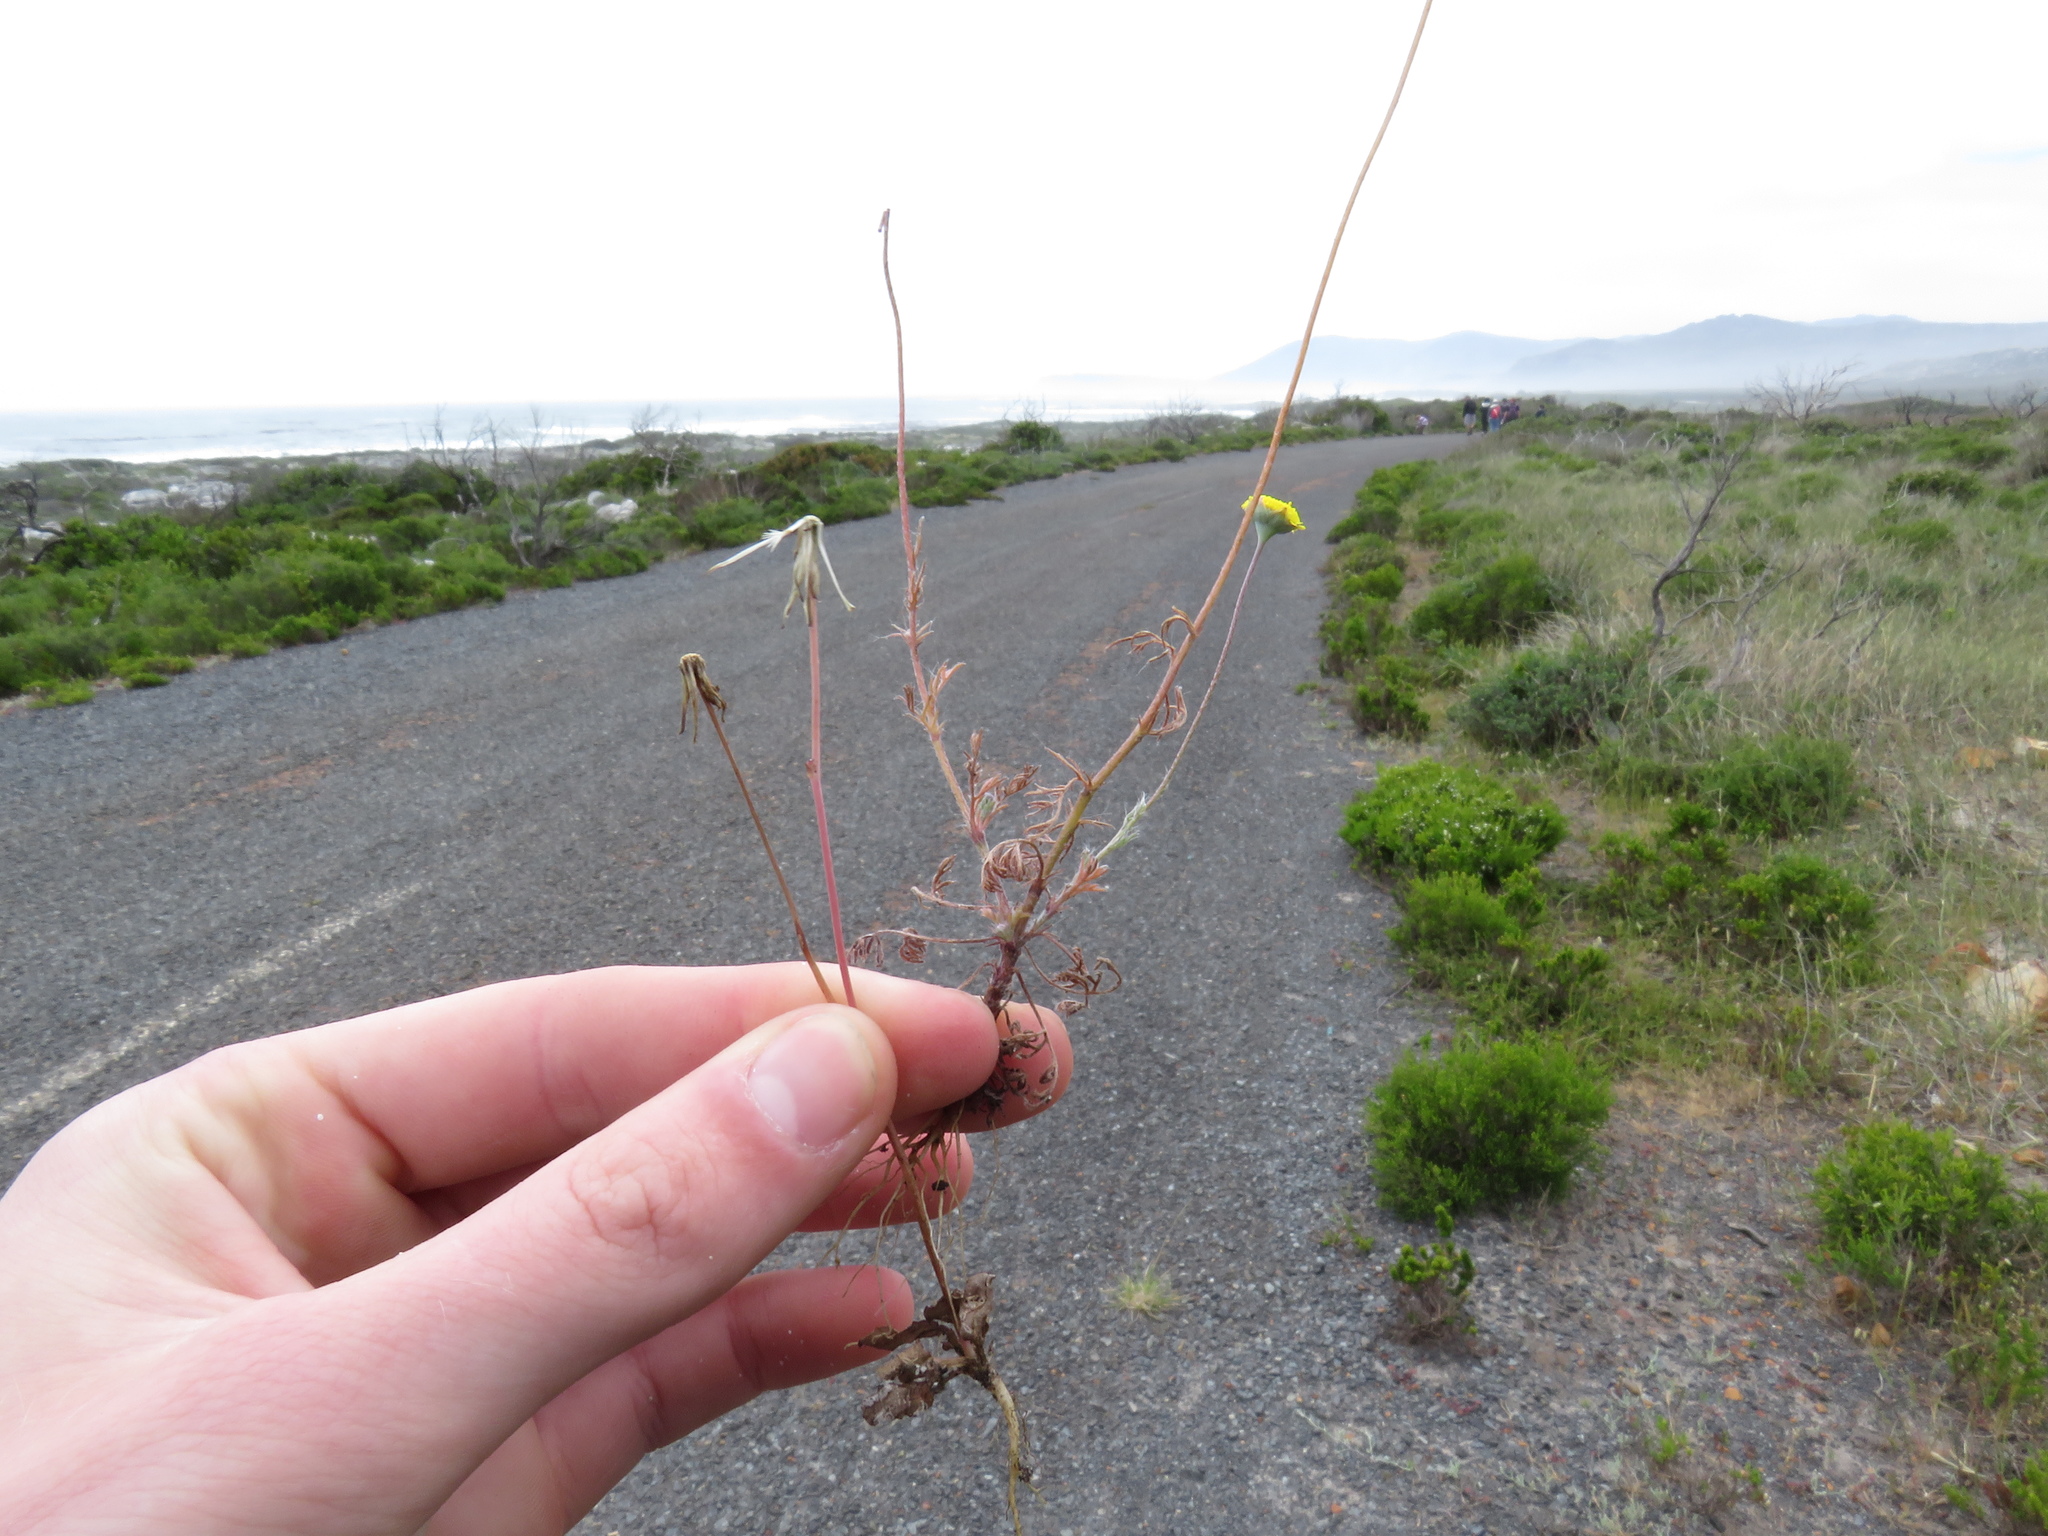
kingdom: Plantae
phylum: Tracheophyta
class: Magnoliopsida
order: Asterales
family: Asteraceae
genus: Cotula
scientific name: Cotula pruinosa
